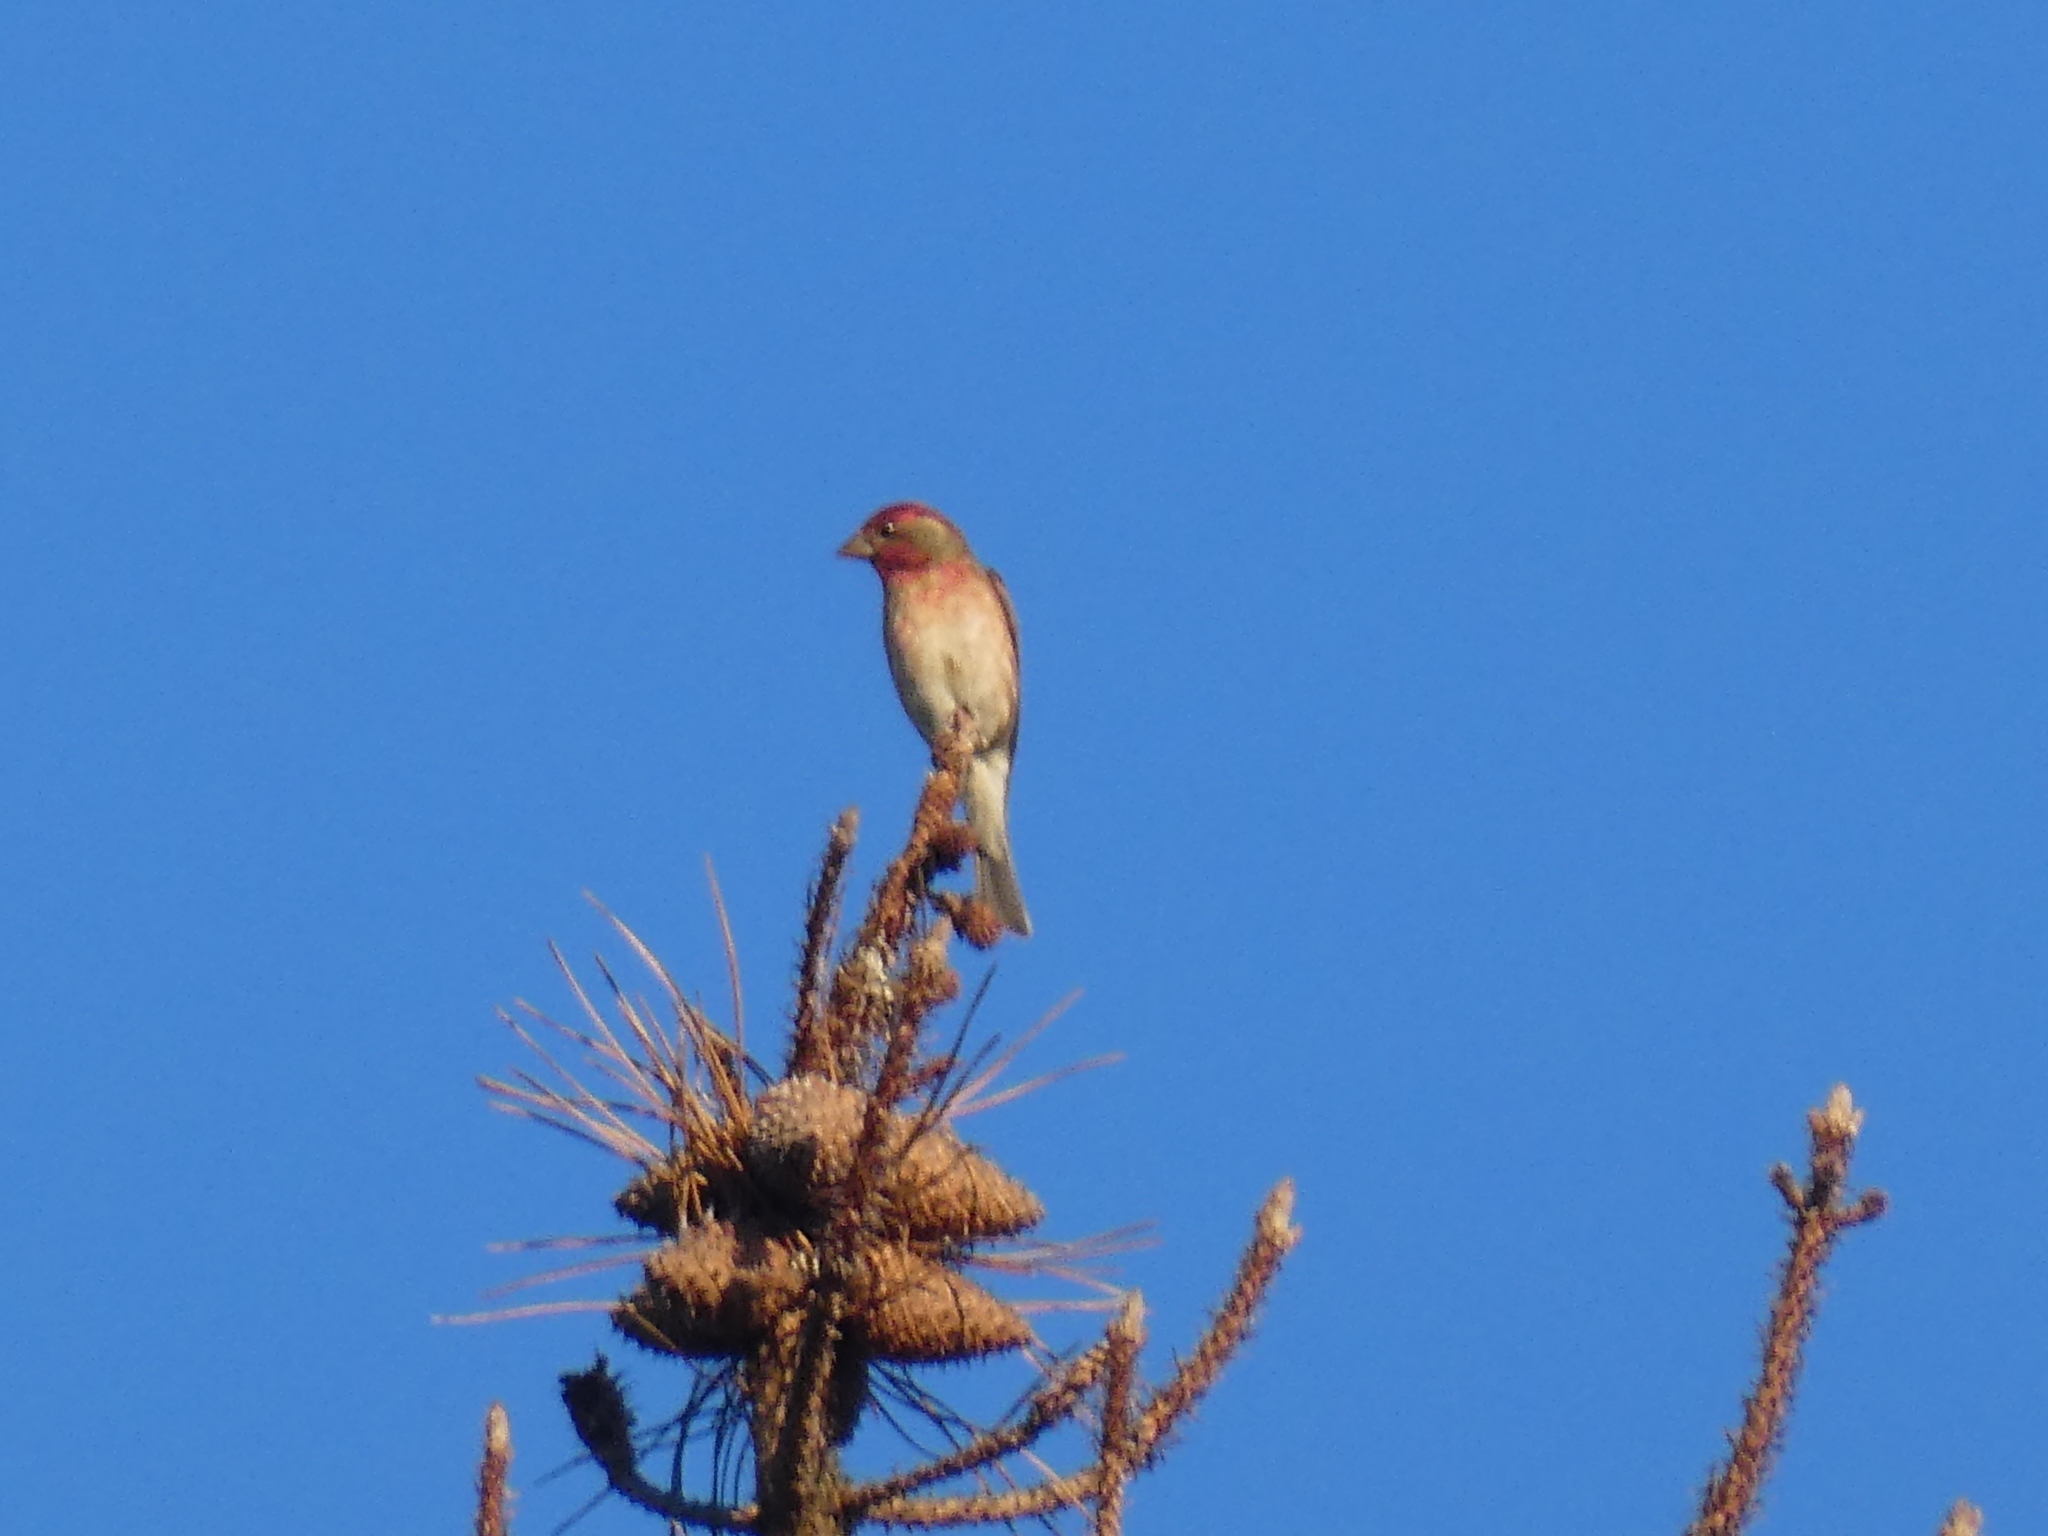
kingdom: Animalia
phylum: Chordata
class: Aves
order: Passeriformes
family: Fringillidae
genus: Haemorhous
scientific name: Haemorhous purpureus
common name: Purple finch
